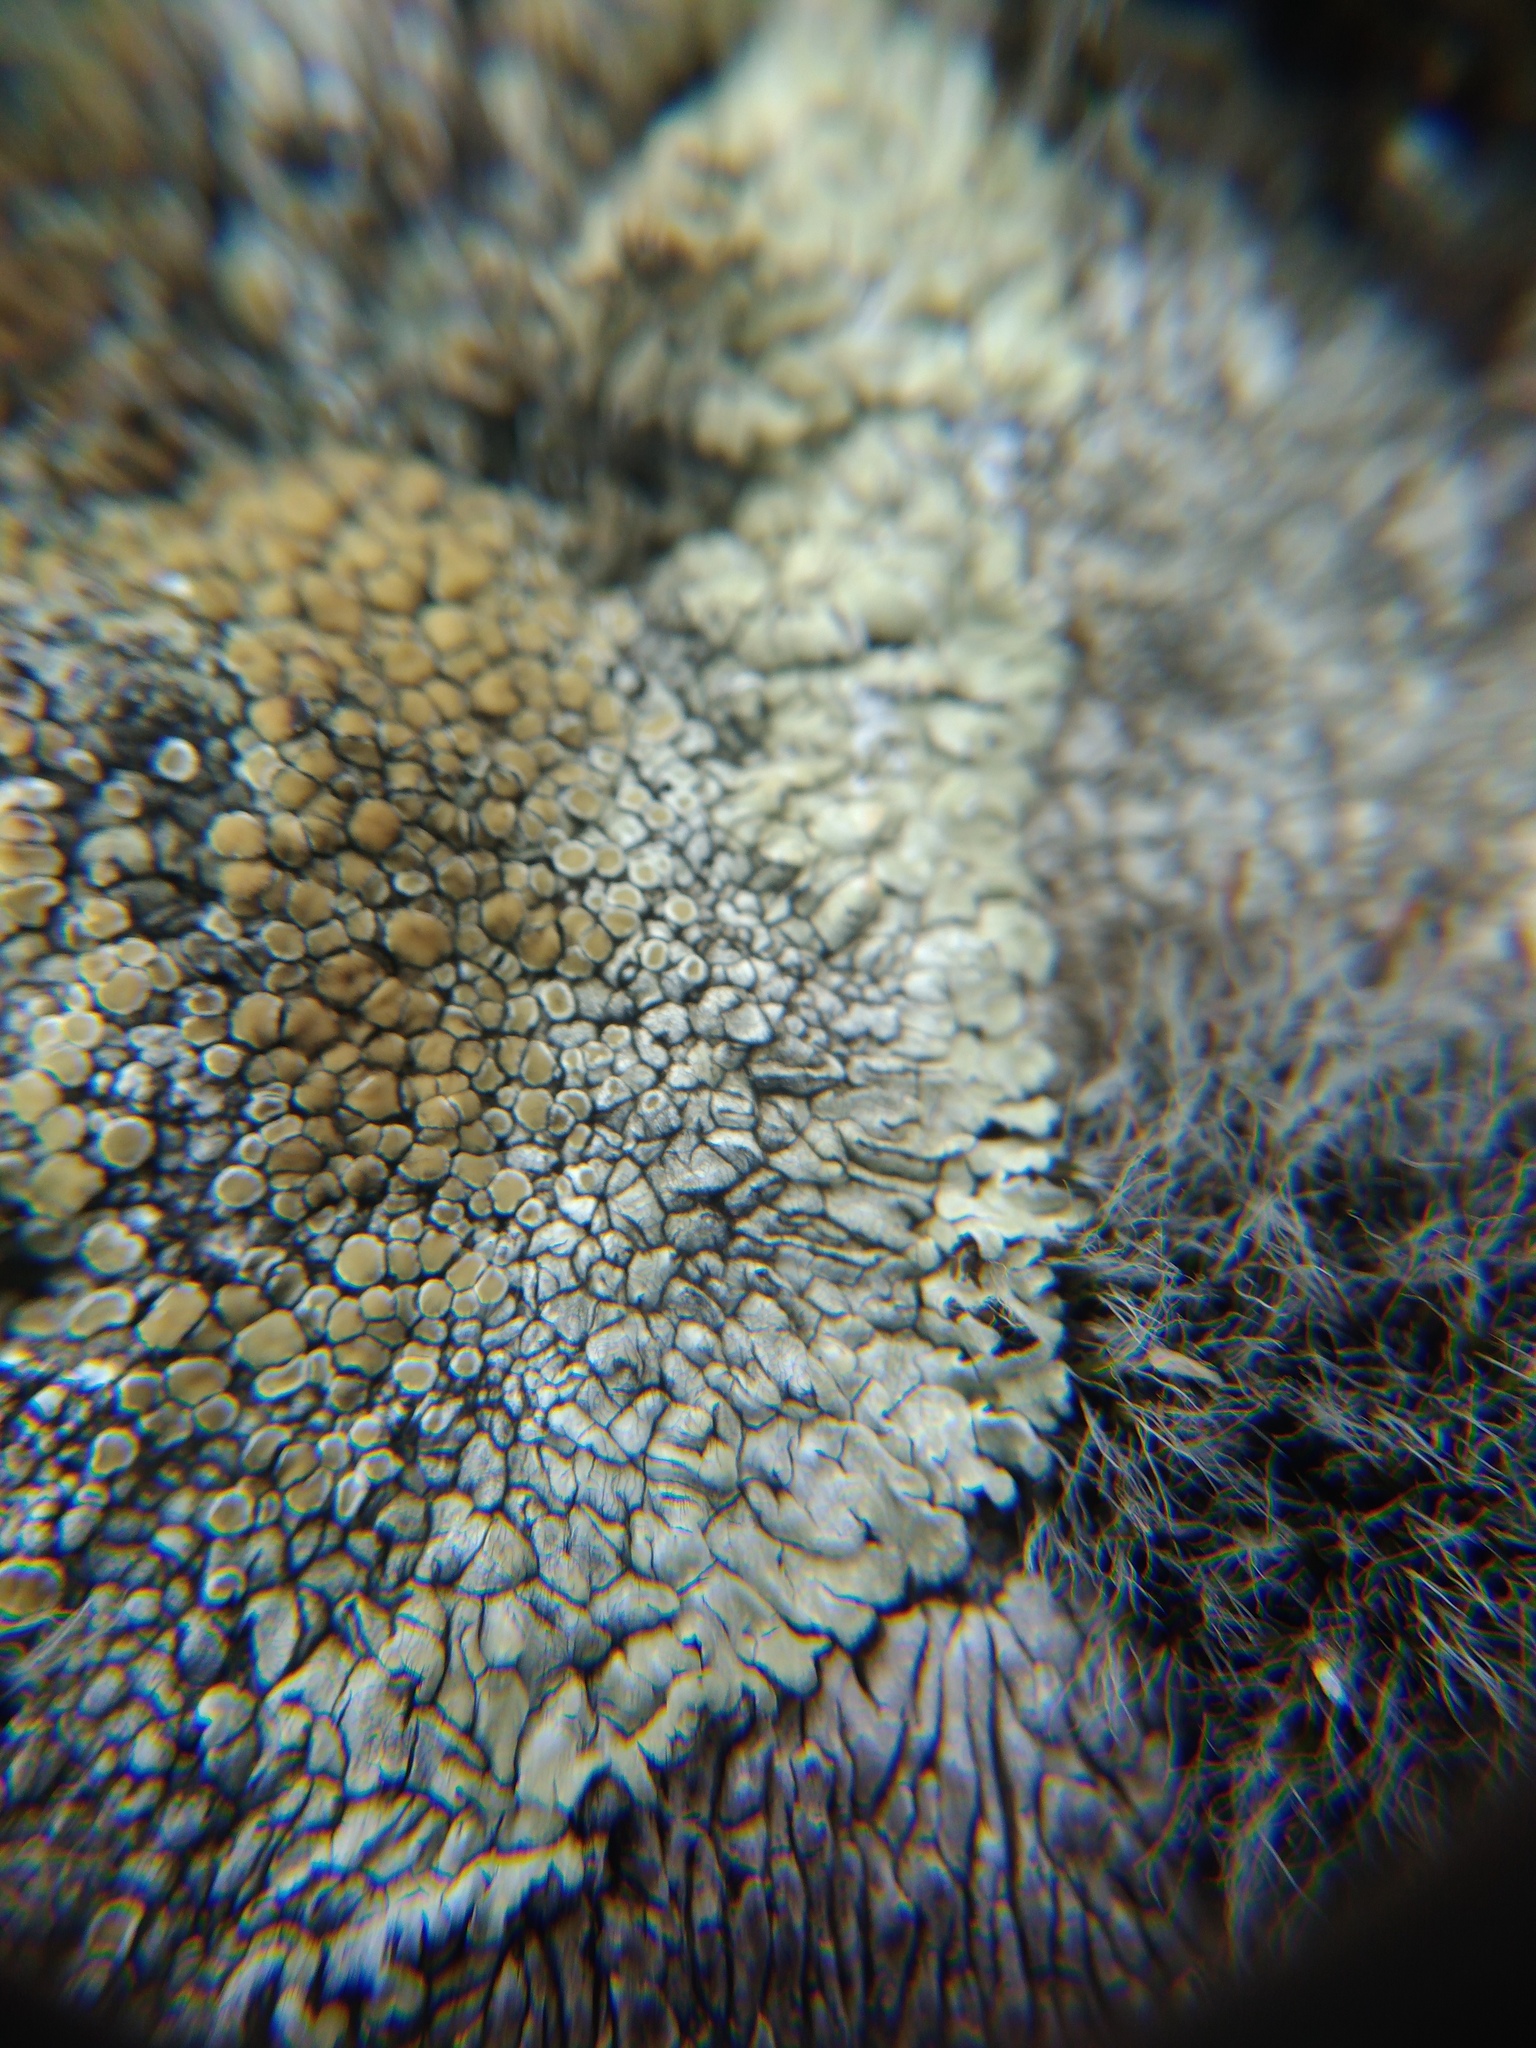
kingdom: Fungi
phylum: Ascomycota
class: Lecanoromycetes
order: Lecanorales
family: Lecanoraceae
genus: Protoparmeliopsis
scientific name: Protoparmeliopsis muralis
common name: Stonewall rim lichen
